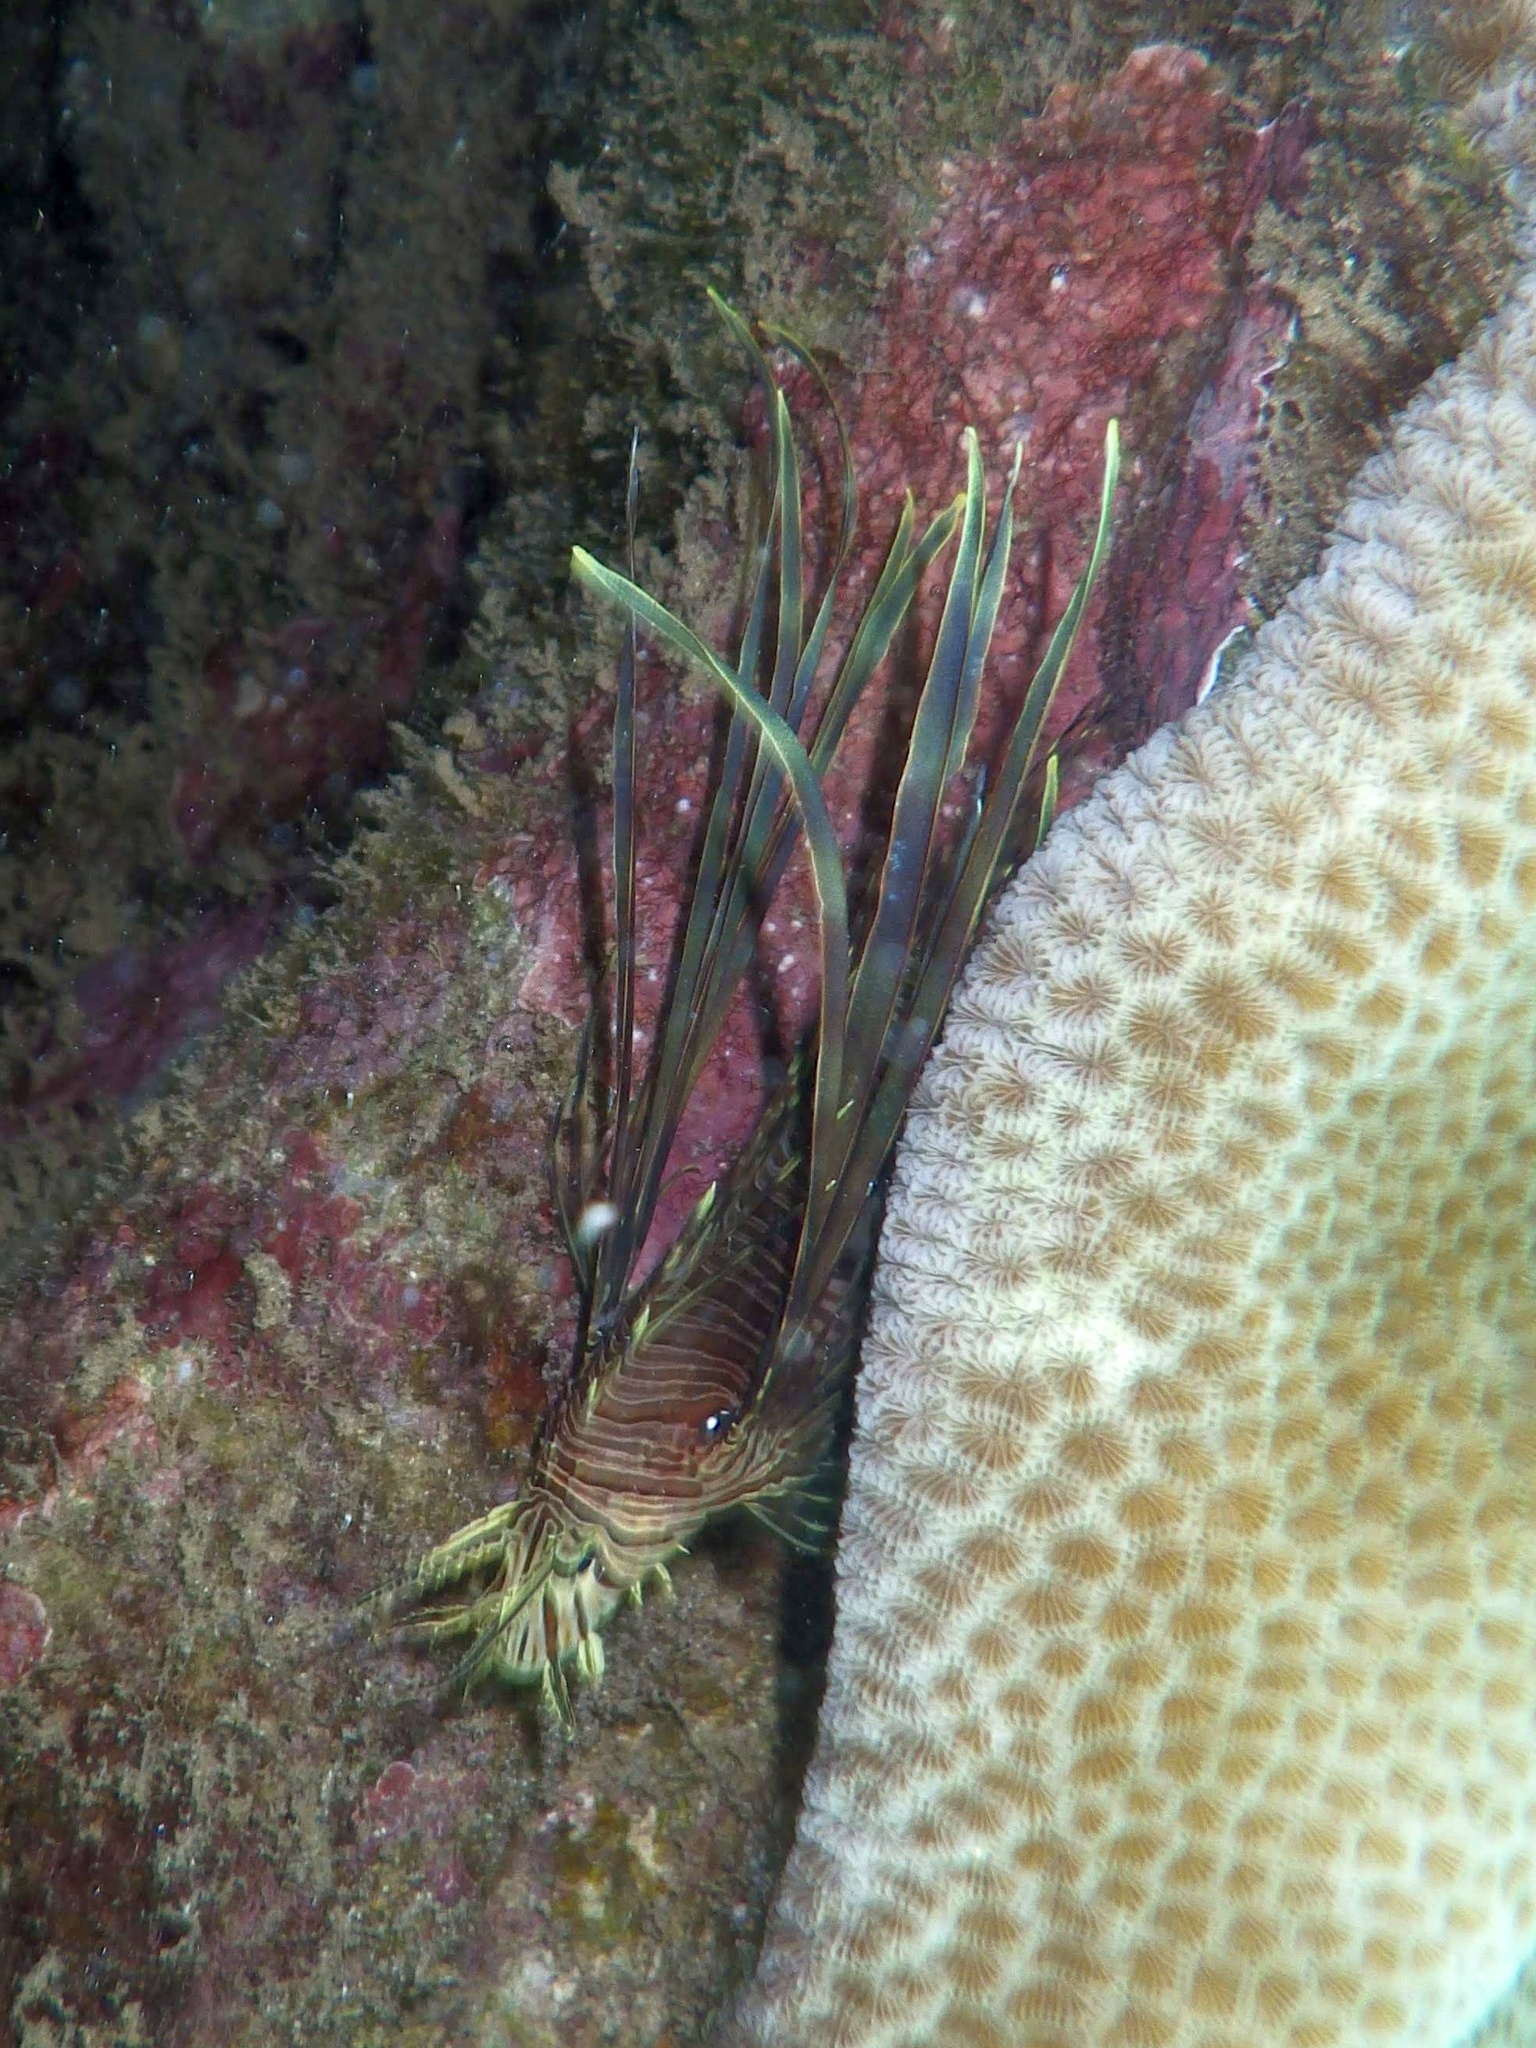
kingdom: Animalia
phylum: Chordata
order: Scorpaeniformes
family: Scorpaenidae
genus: Pterois
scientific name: Pterois volitans
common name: Lionfish
